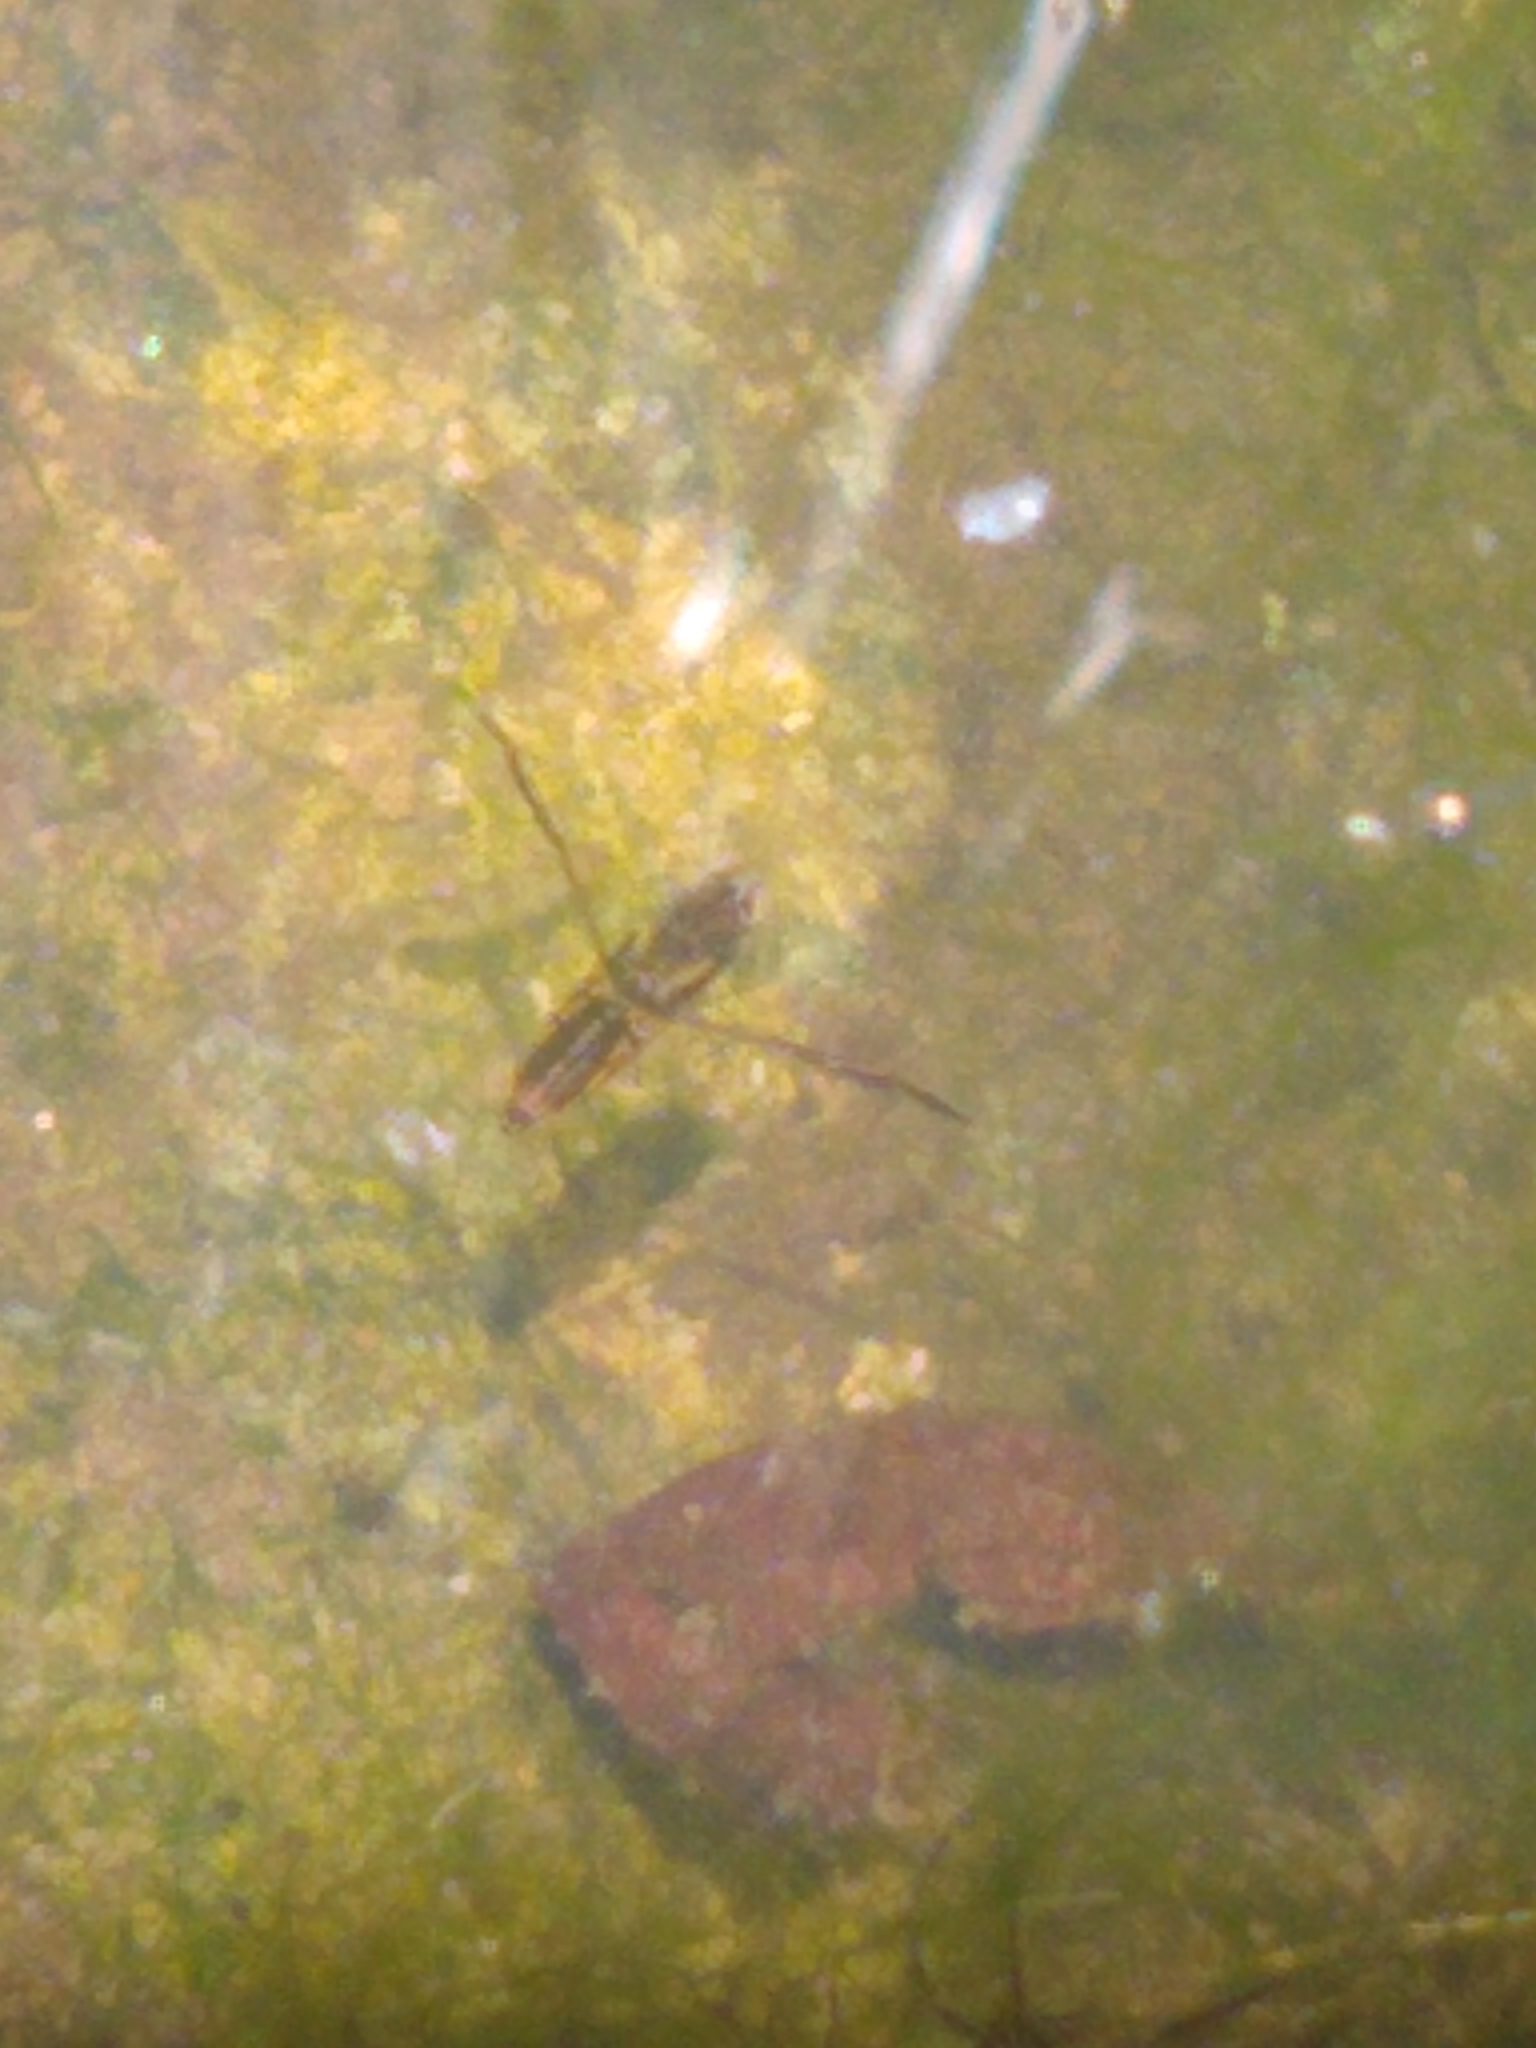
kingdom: Animalia
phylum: Arthropoda
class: Insecta
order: Hemiptera
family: Notonectidae
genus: Buenoa
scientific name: Buenoa
